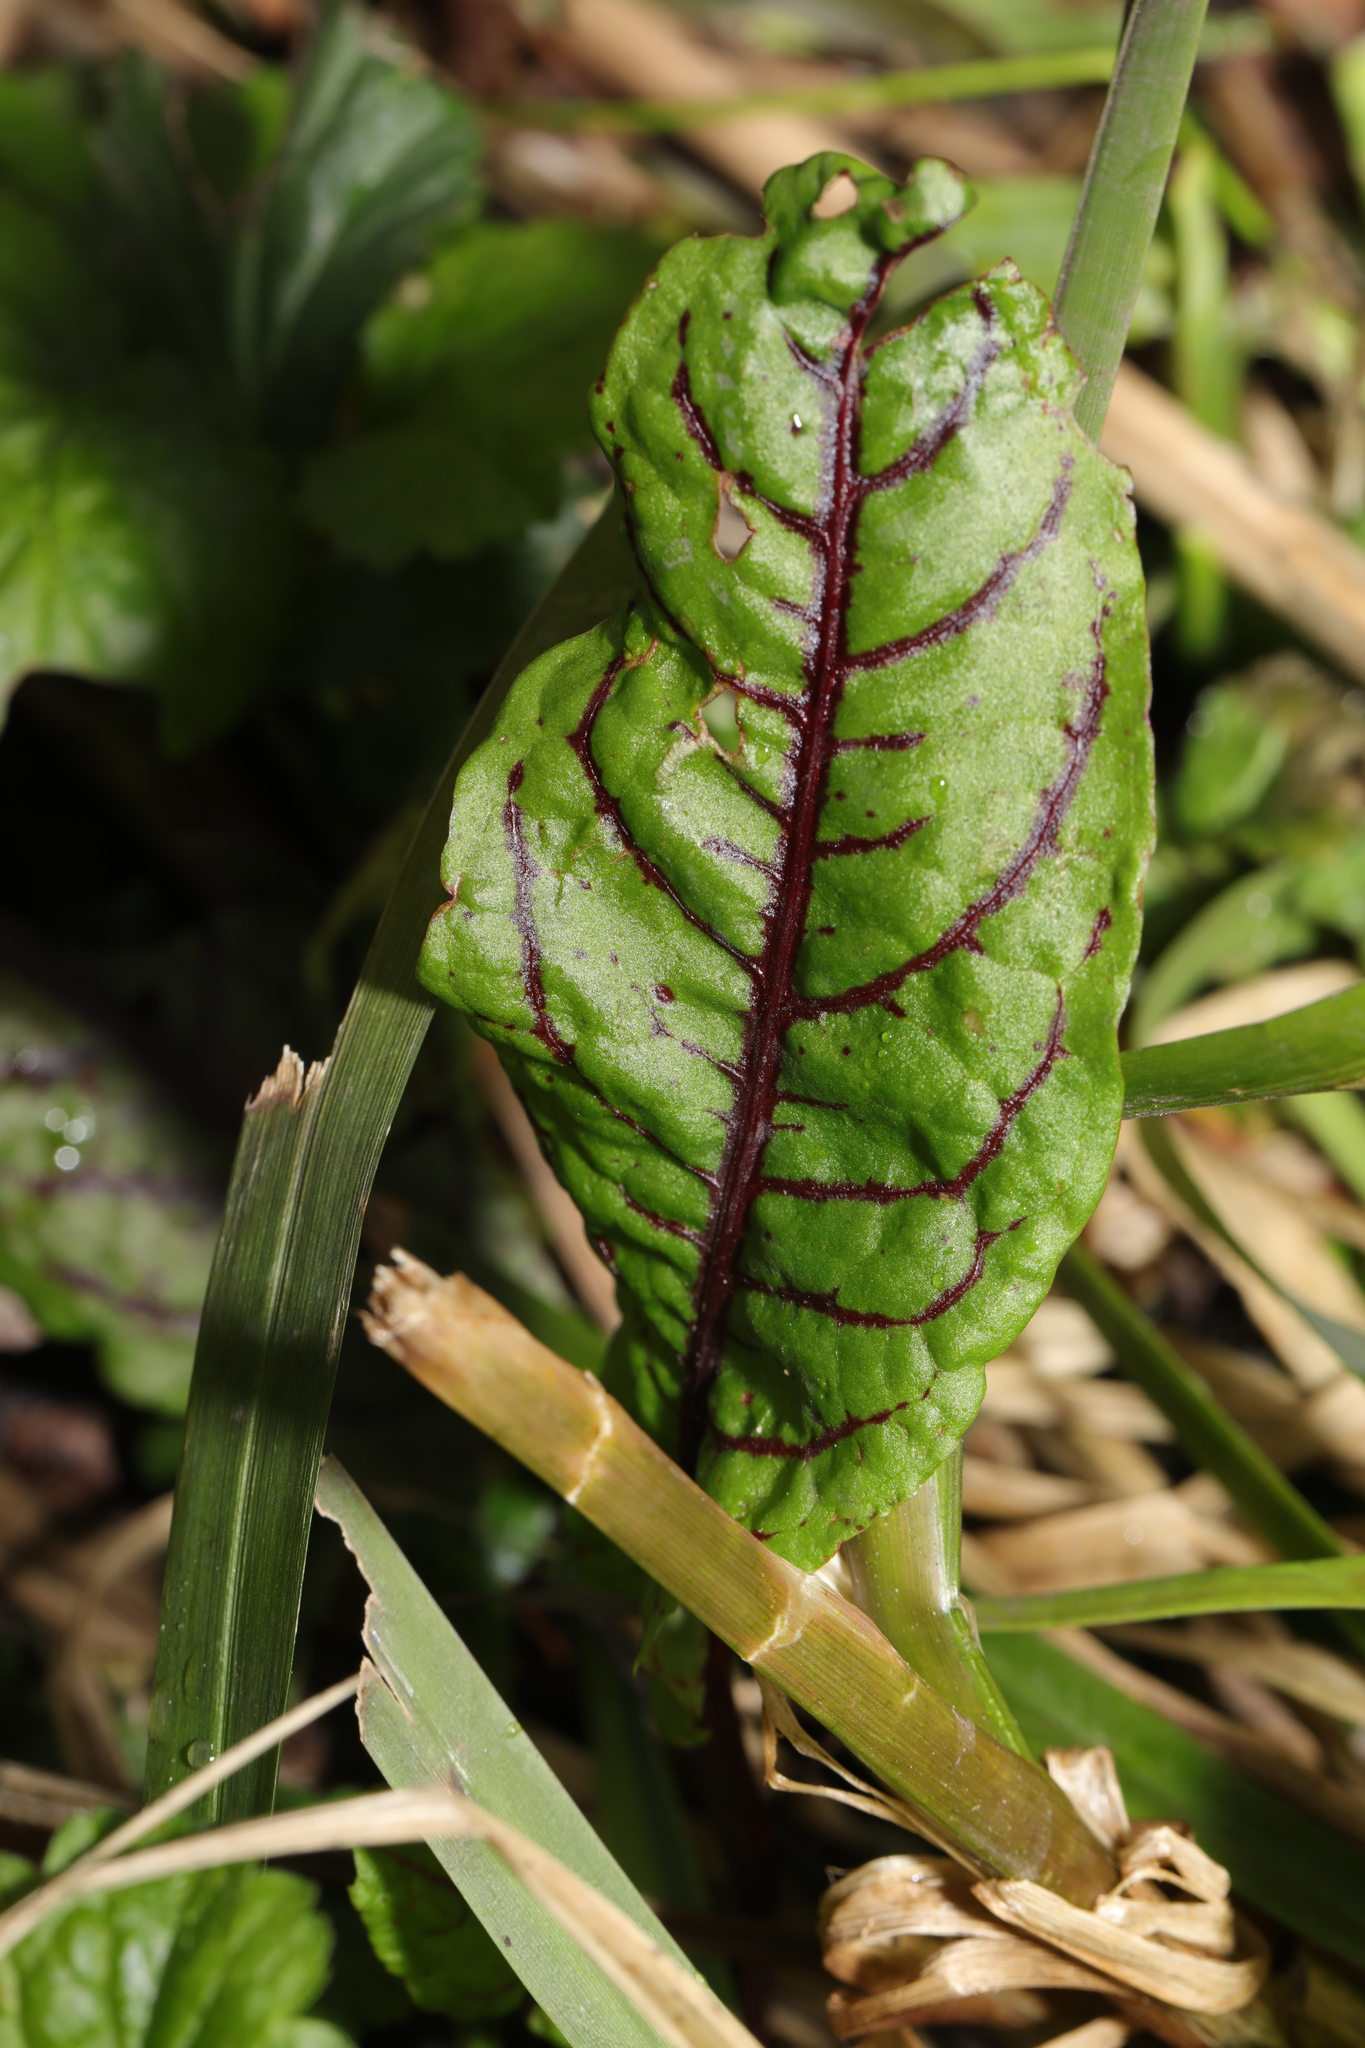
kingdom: Plantae
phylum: Tracheophyta
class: Magnoliopsida
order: Caryophyllales
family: Polygonaceae
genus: Rumex
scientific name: Rumex sanguineus
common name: Wood dock
